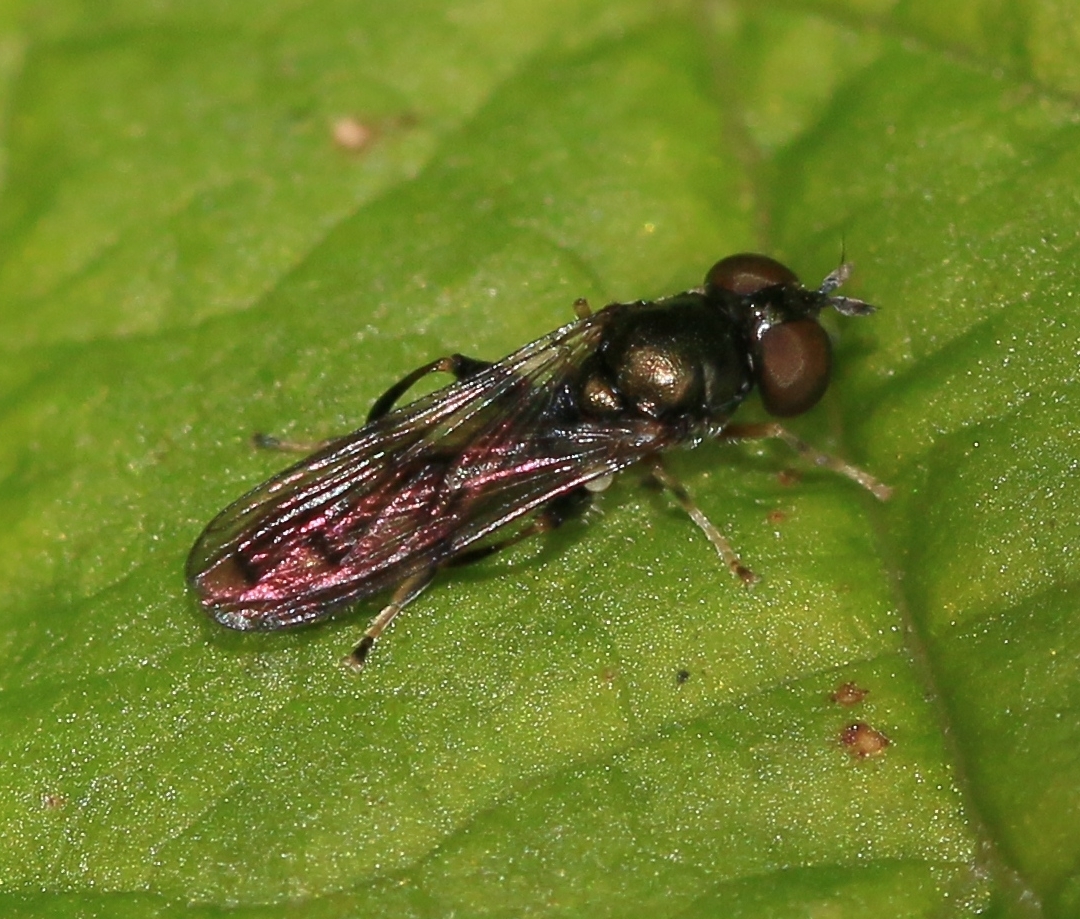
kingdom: Animalia
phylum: Arthropoda
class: Insecta
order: Diptera
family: Syrphidae
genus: Neoascia
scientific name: Neoascia
